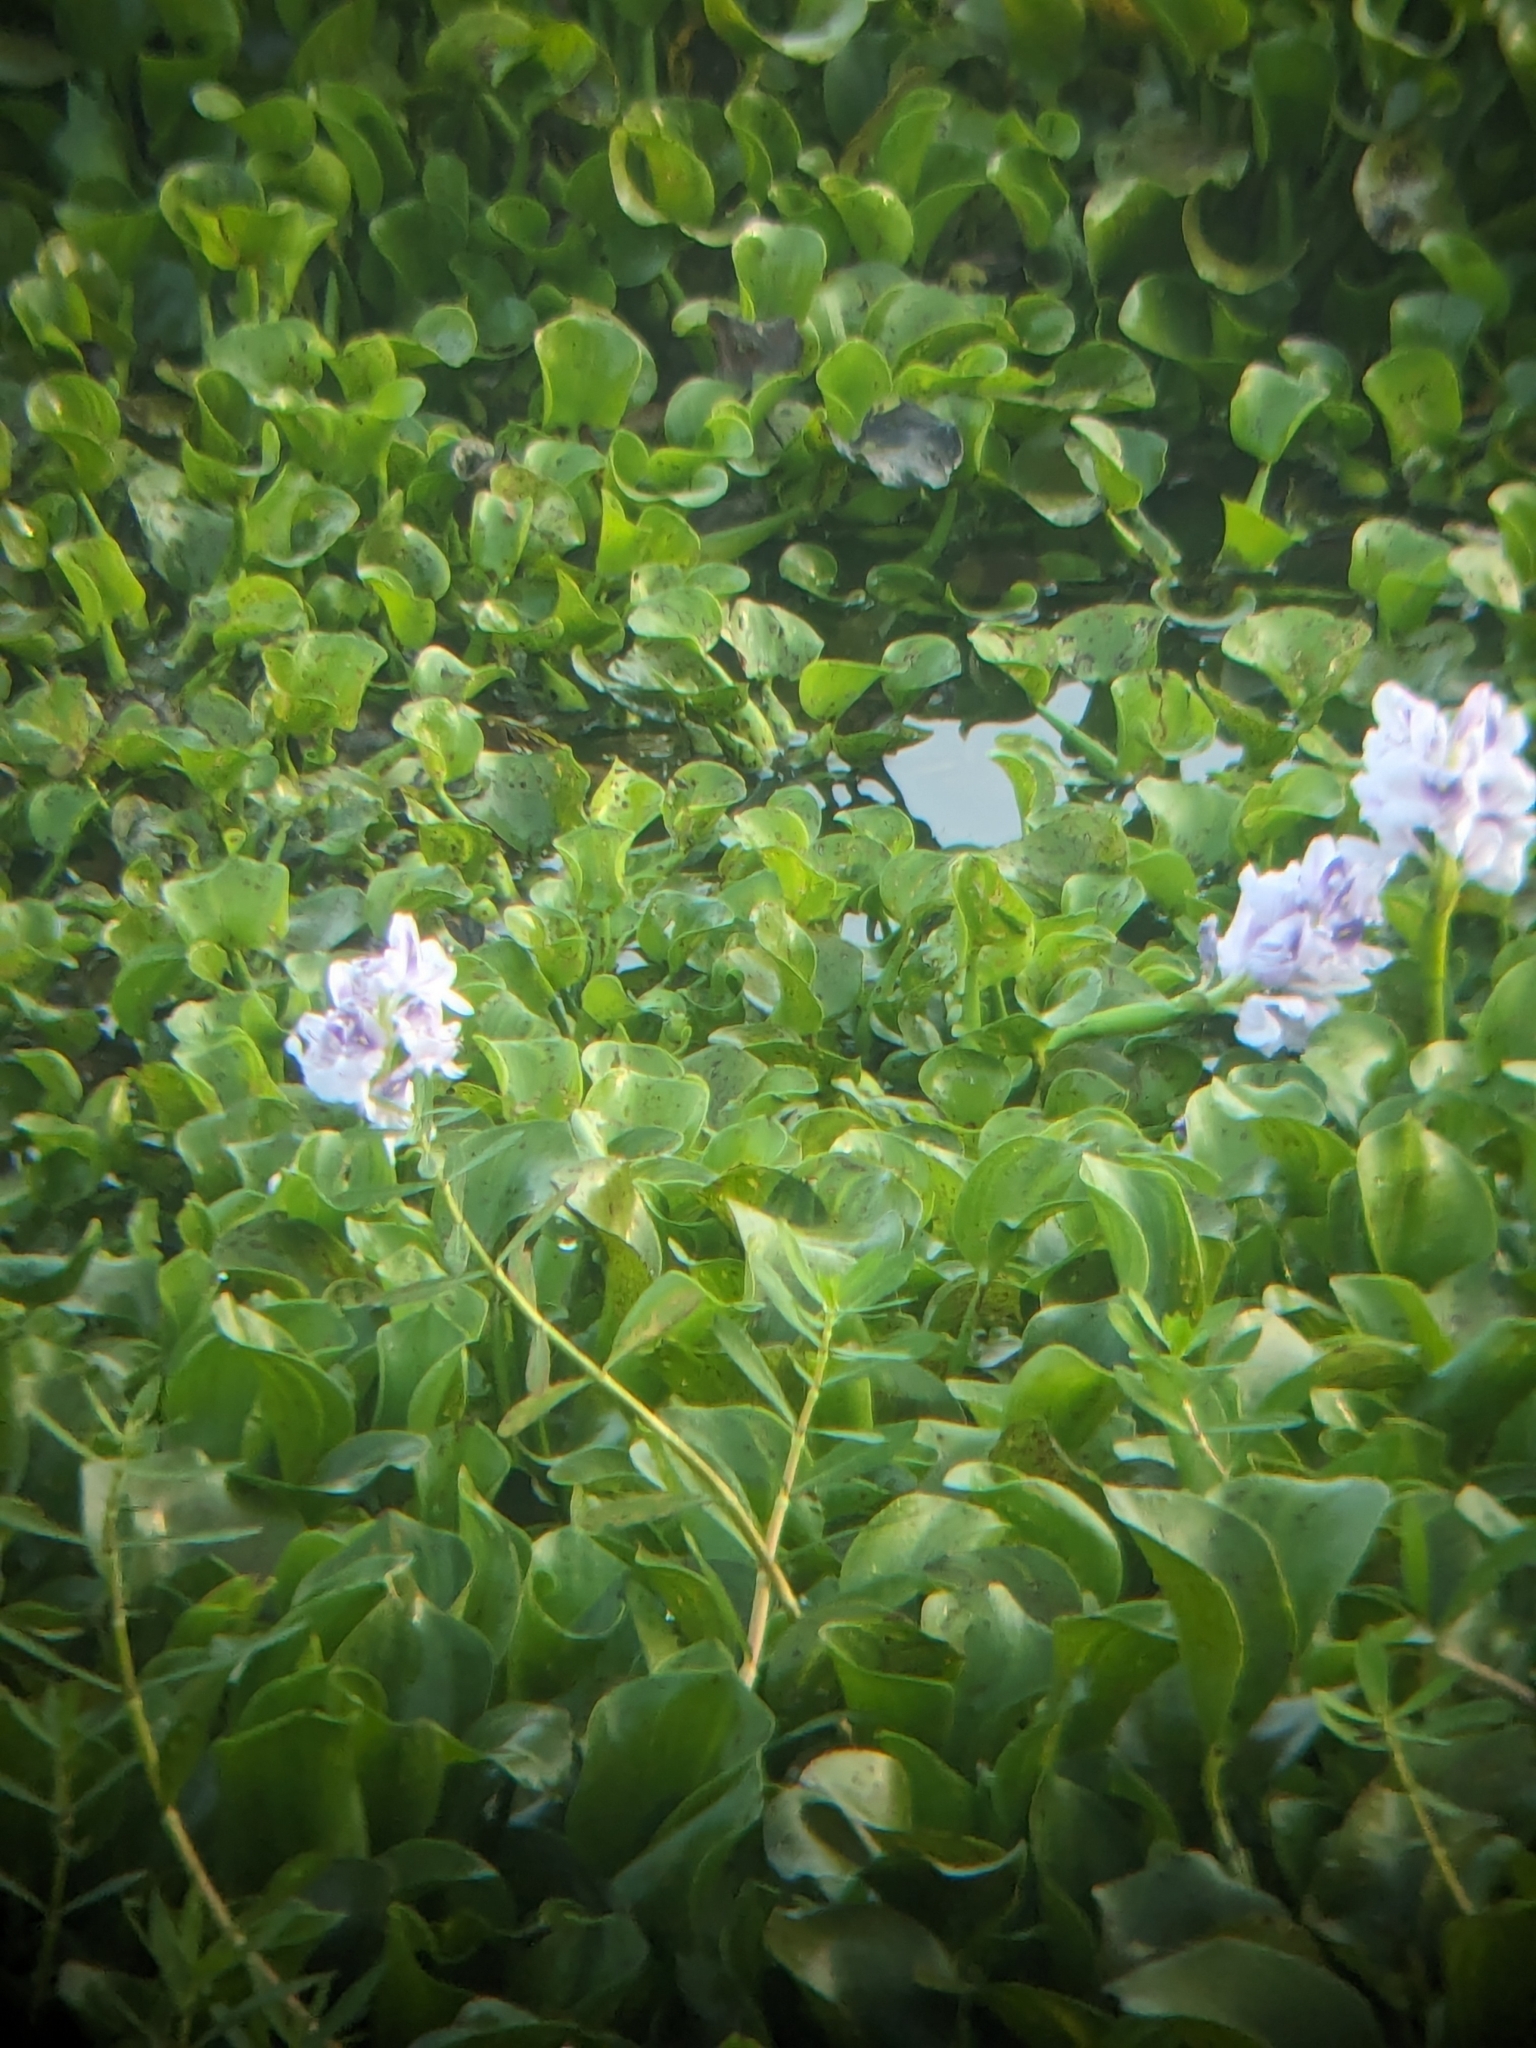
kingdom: Plantae
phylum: Tracheophyta
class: Liliopsida
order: Commelinales
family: Pontederiaceae
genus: Pontederia
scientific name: Pontederia crassipes
